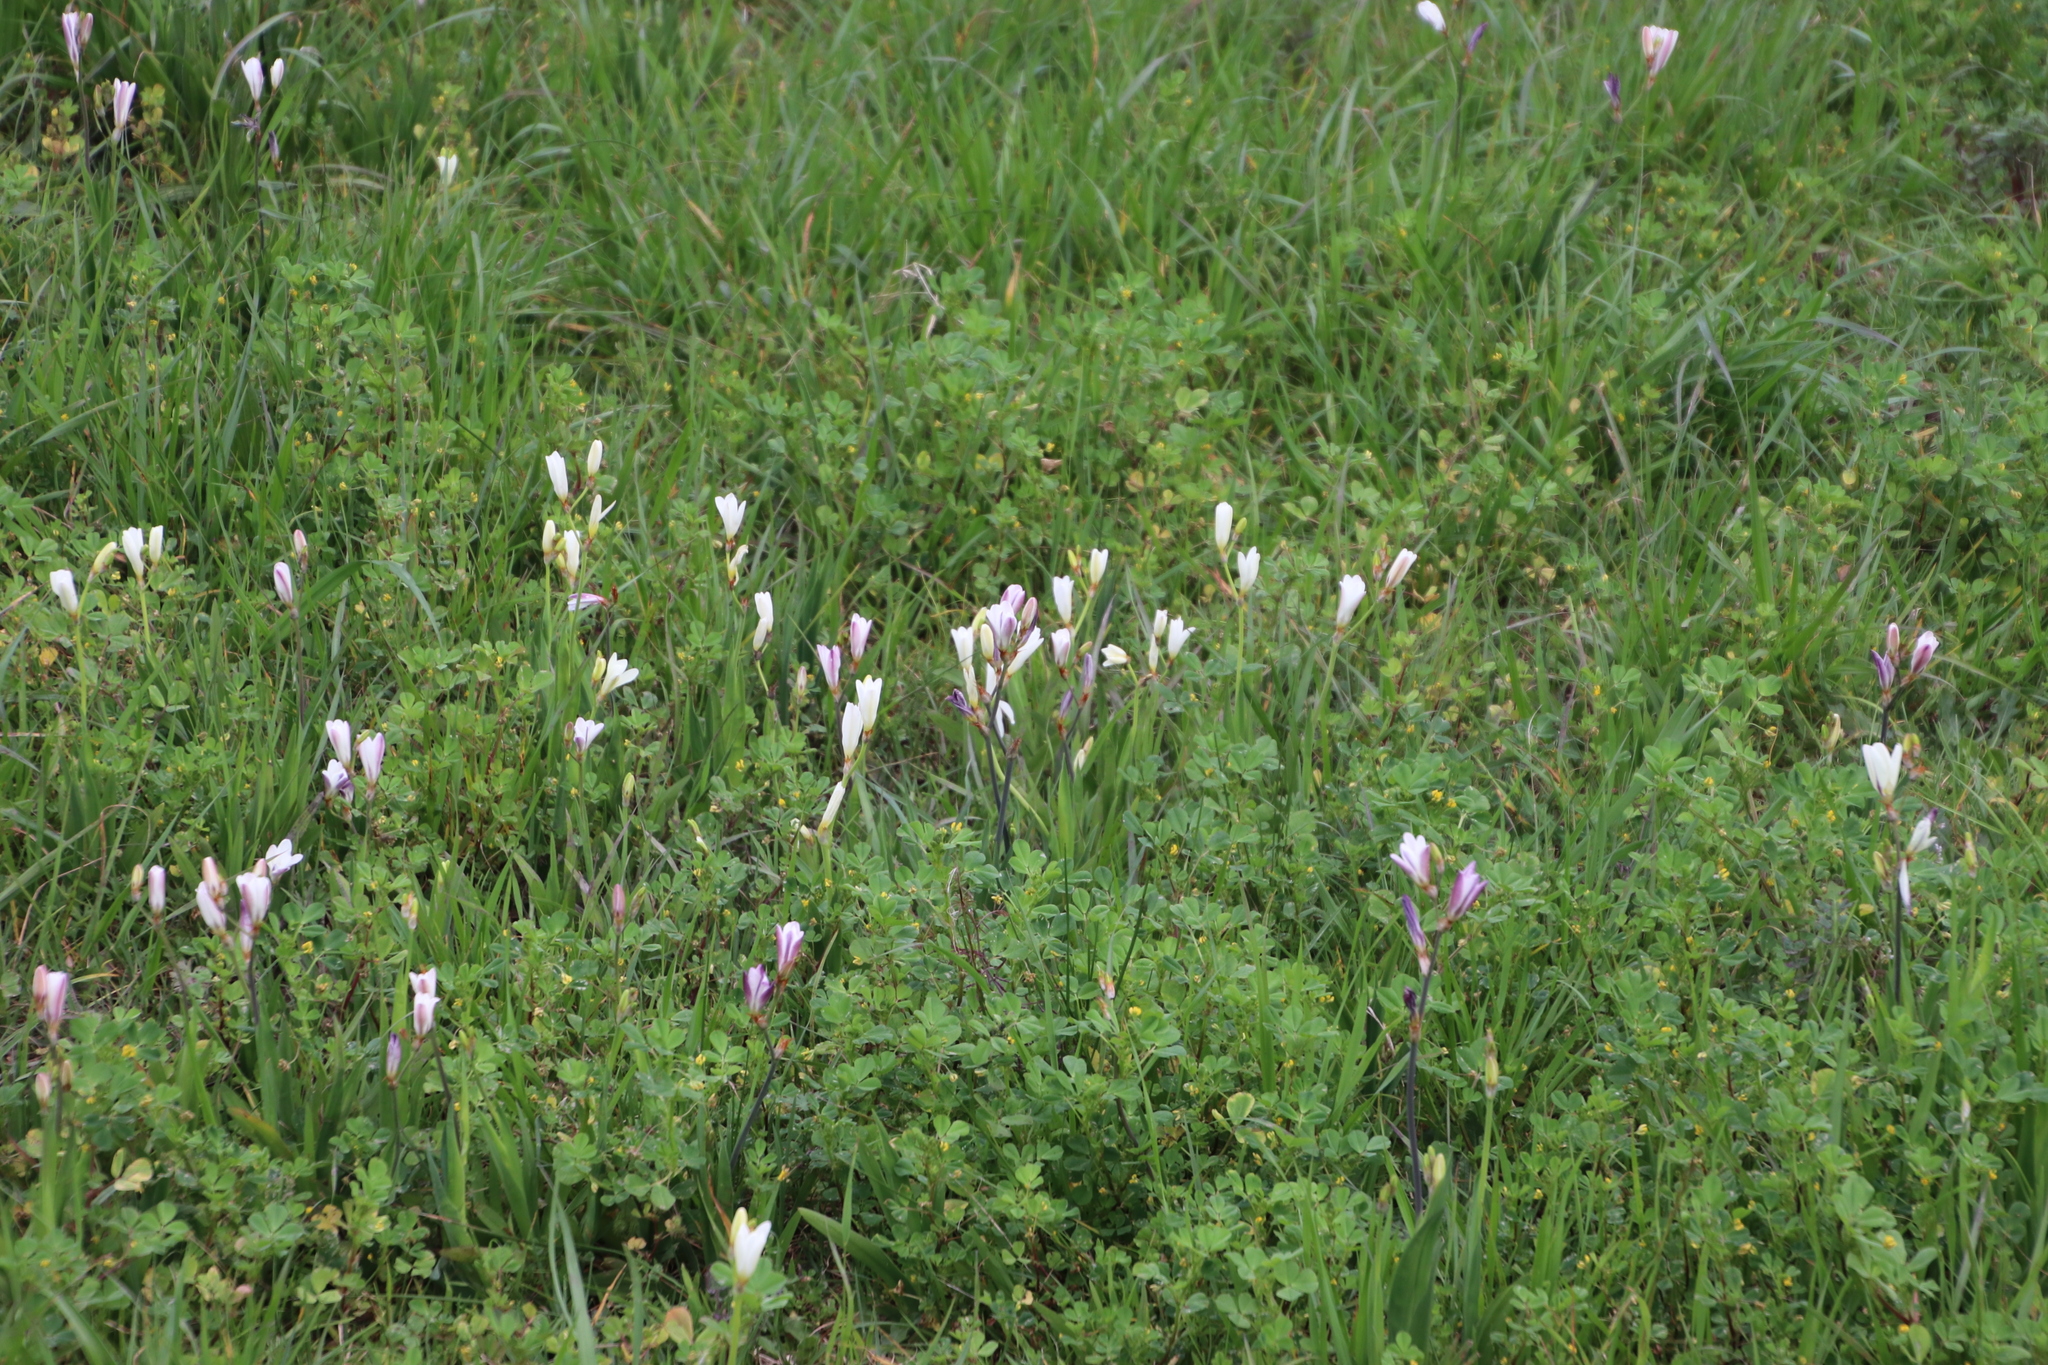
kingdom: Plantae
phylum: Tracheophyta
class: Liliopsida
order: Asparagales
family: Iridaceae
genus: Sparaxis
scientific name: Sparaxis bulbifera
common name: Harlequin-flower
